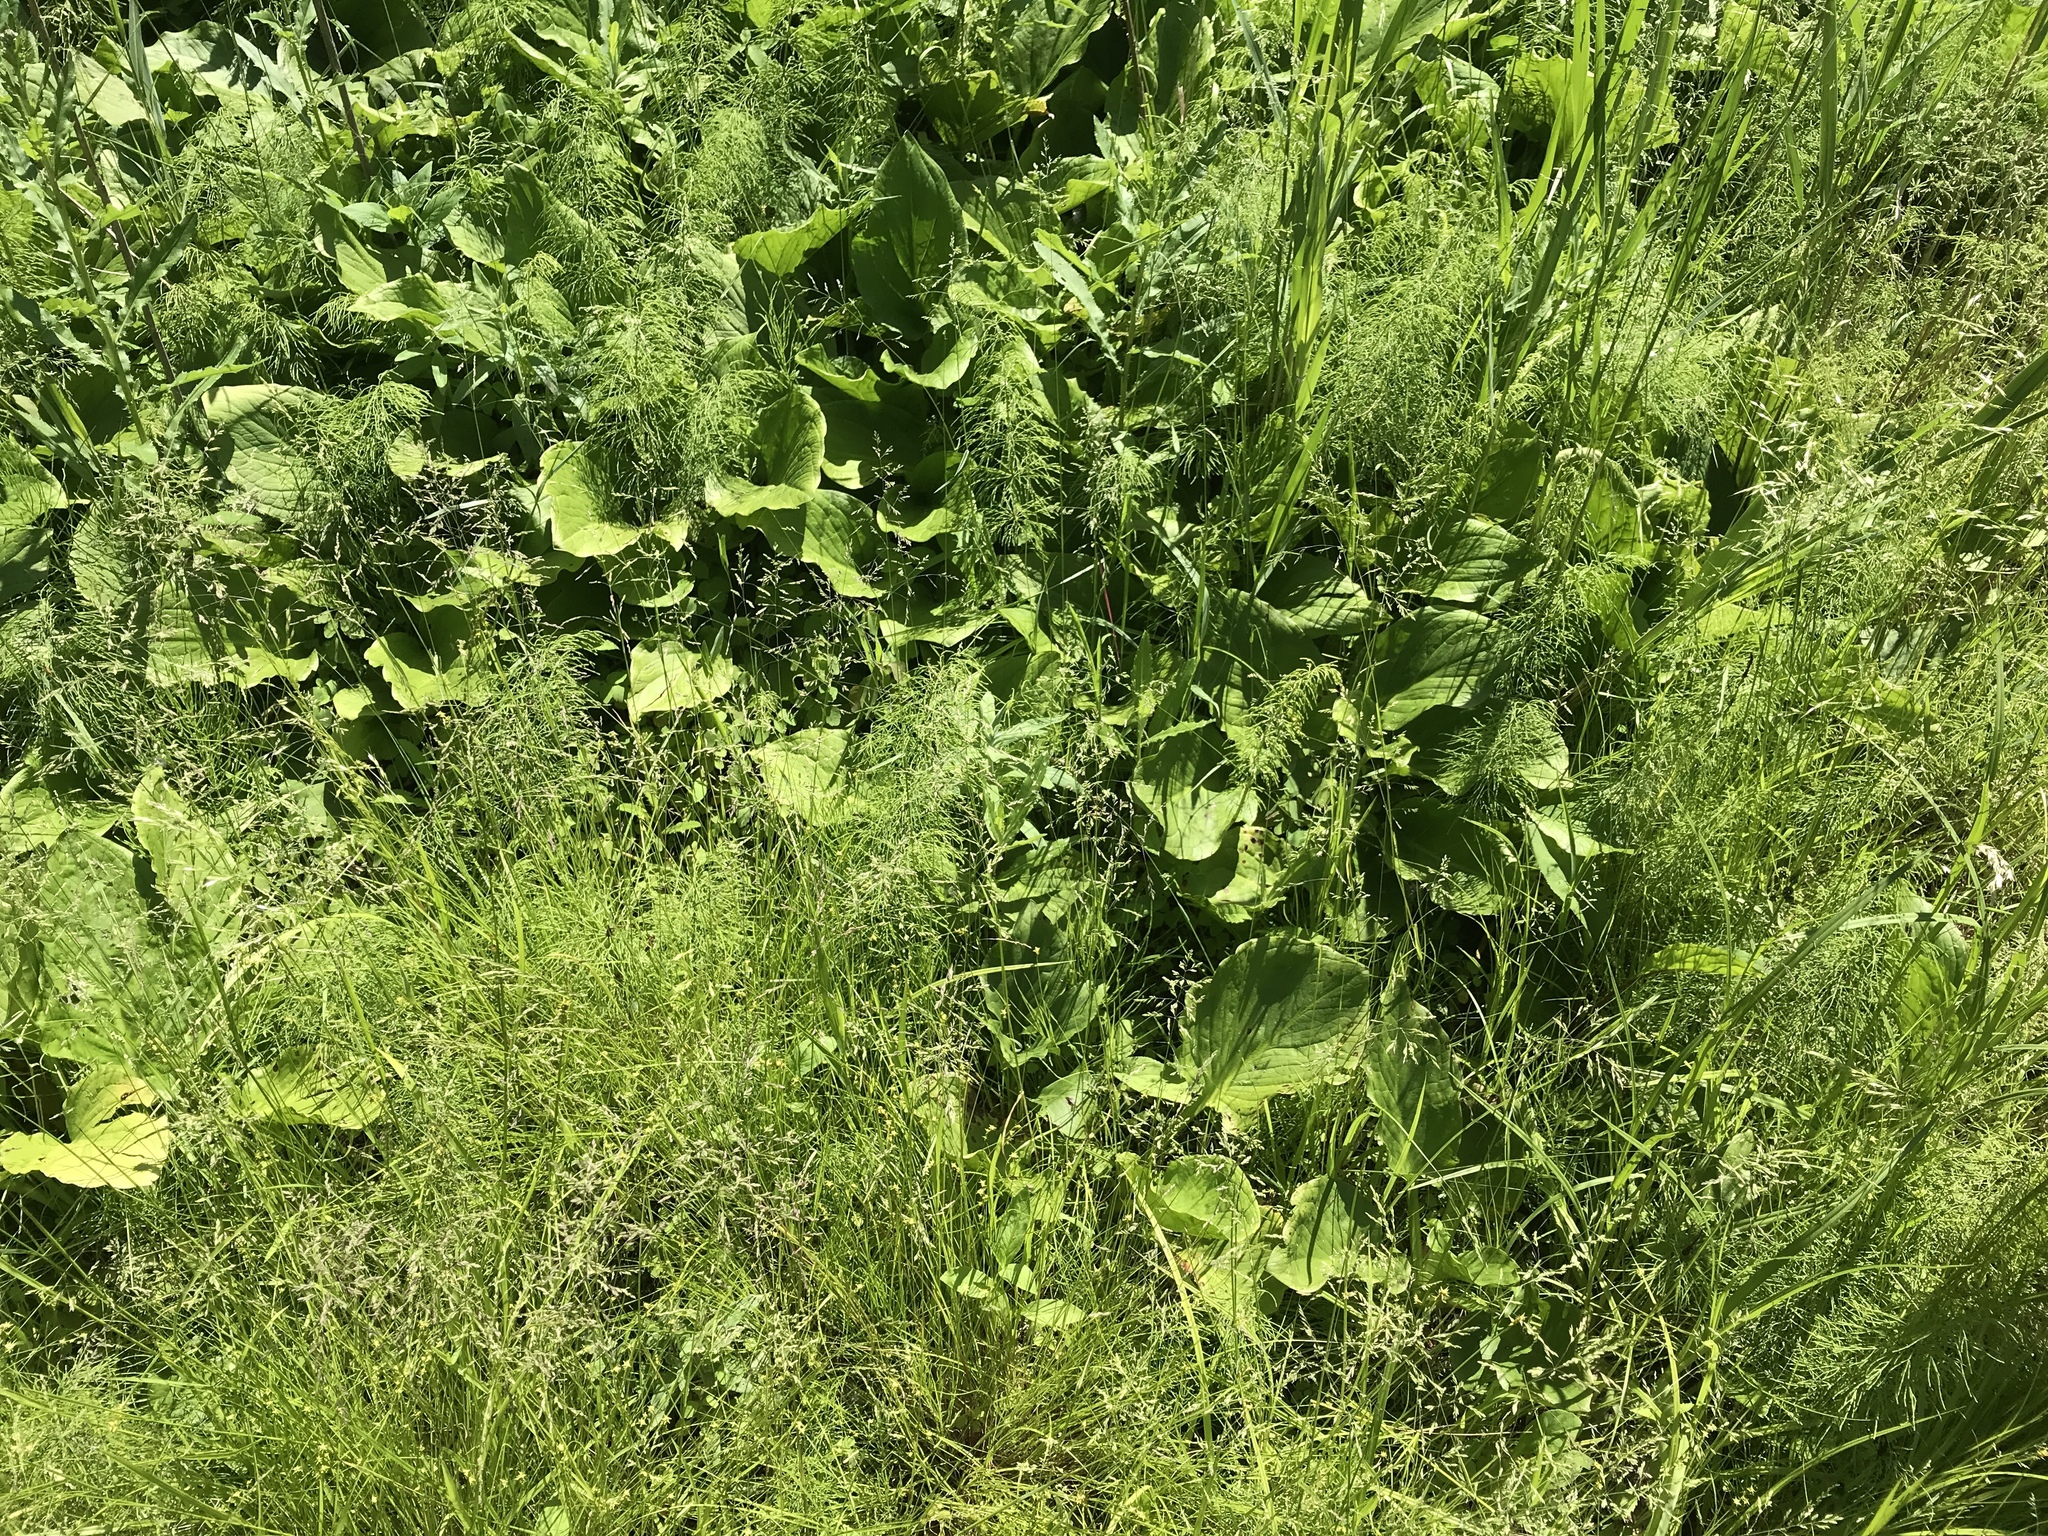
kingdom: Plantae
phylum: Tracheophyta
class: Polypodiopsida
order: Equisetales
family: Equisetaceae
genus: Equisetum
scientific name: Equisetum sylvaticum
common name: Wood horsetail
